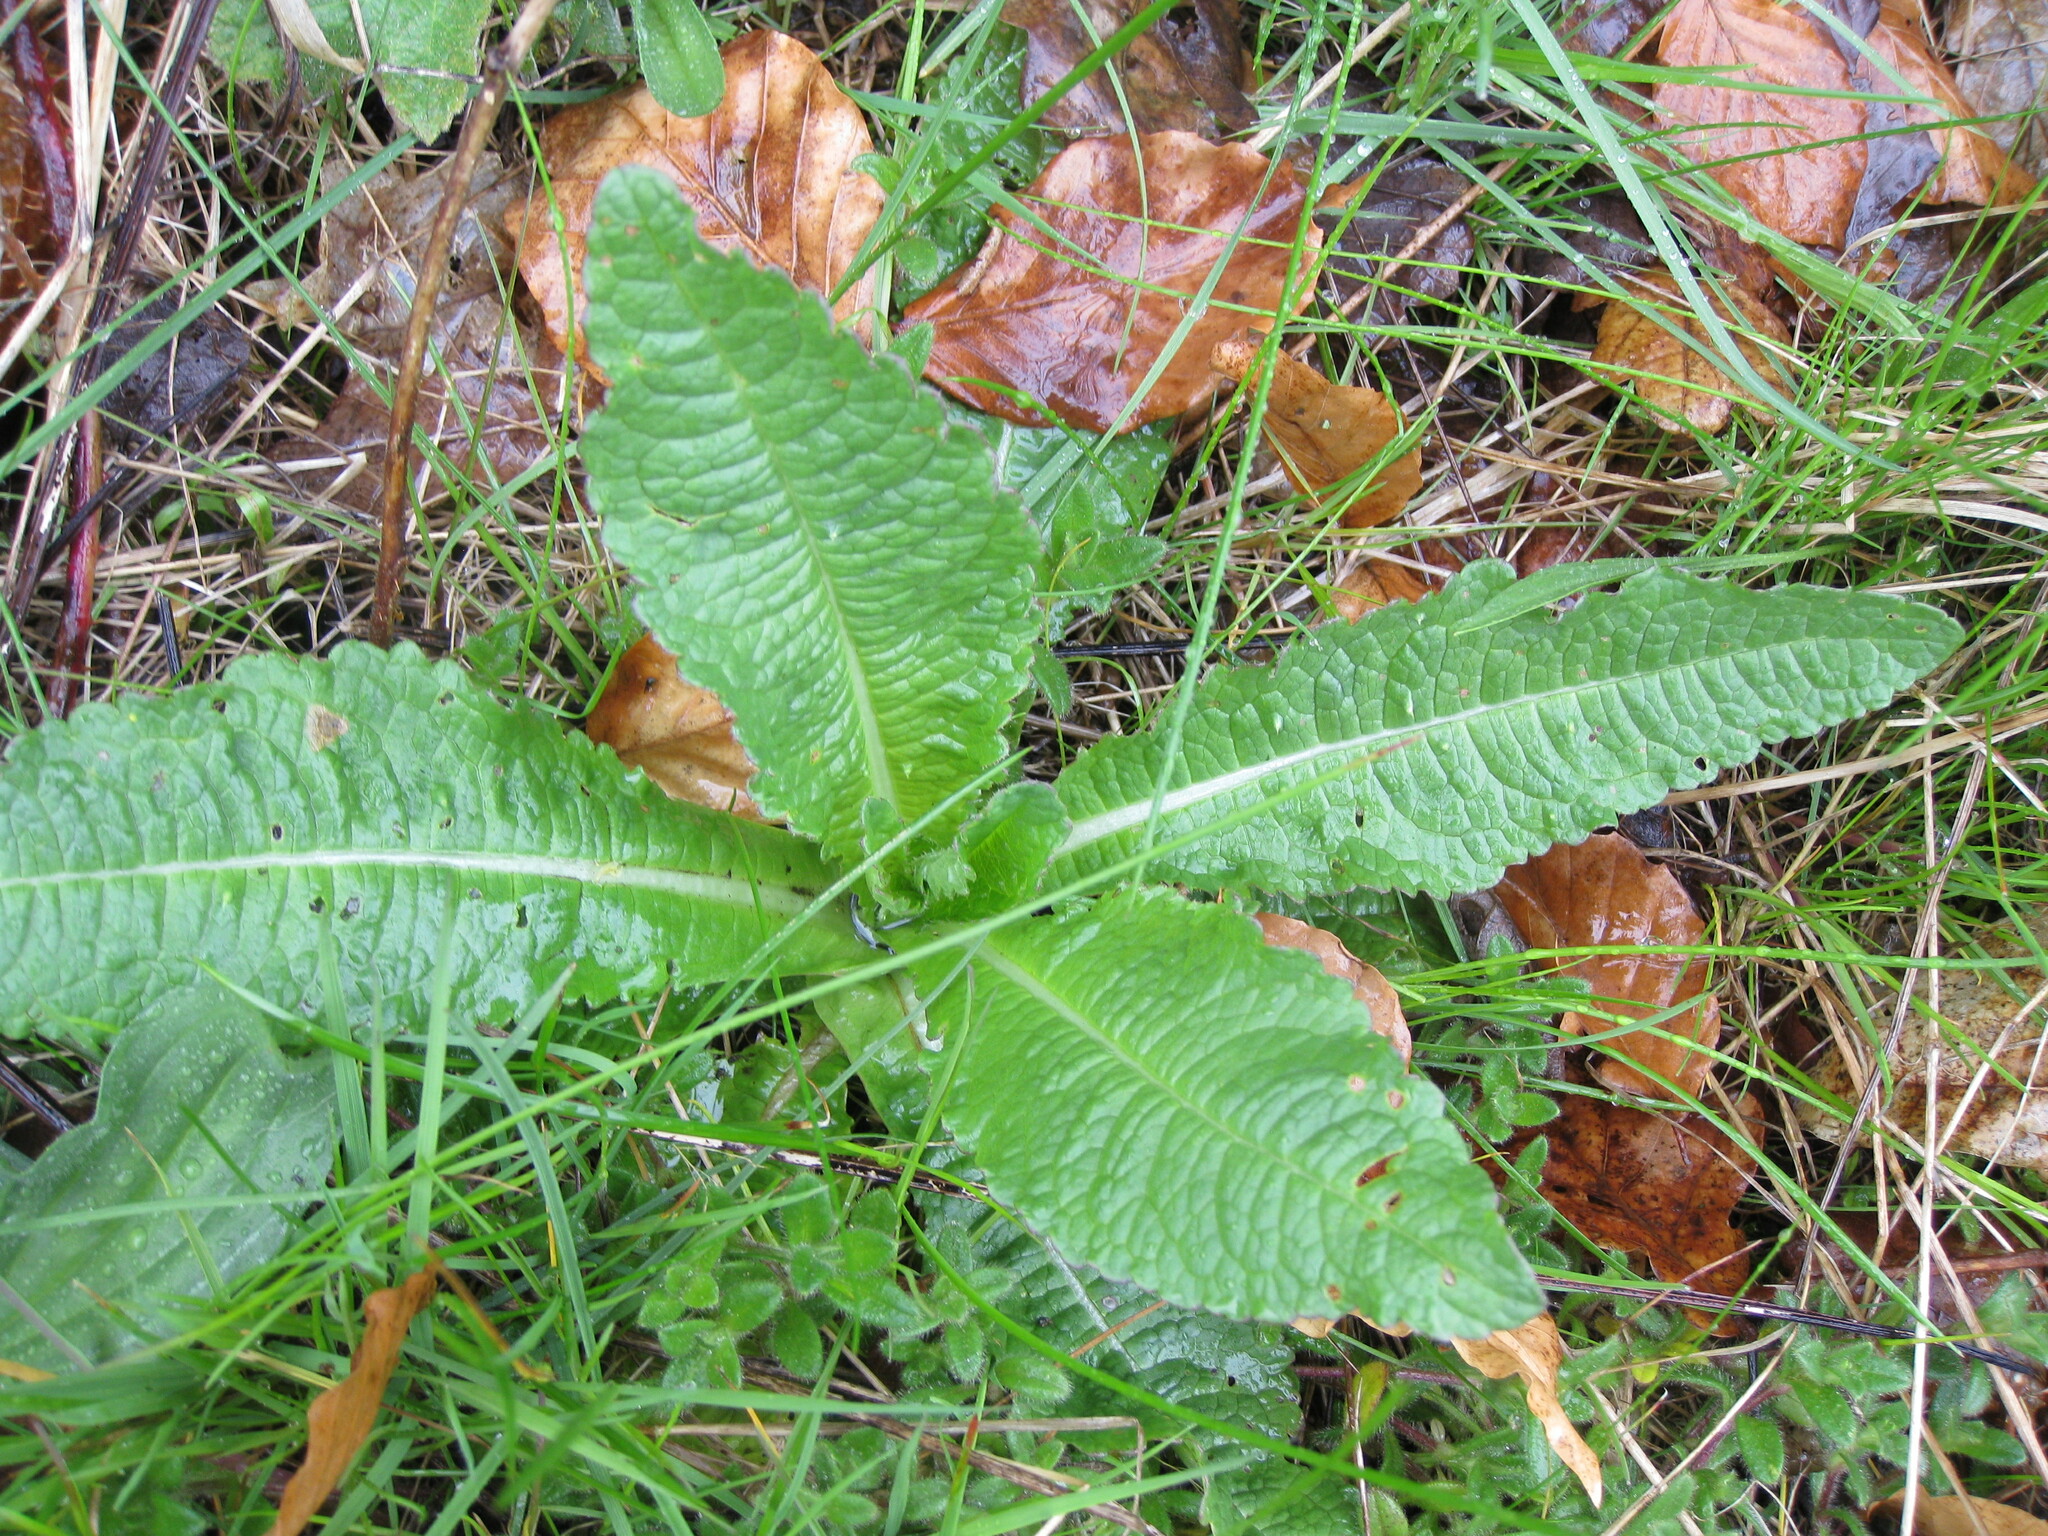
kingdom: Plantae
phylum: Tracheophyta
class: Magnoliopsida
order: Dipsacales
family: Caprifoliaceae
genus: Dipsacus
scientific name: Dipsacus fullonum
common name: Teasel
